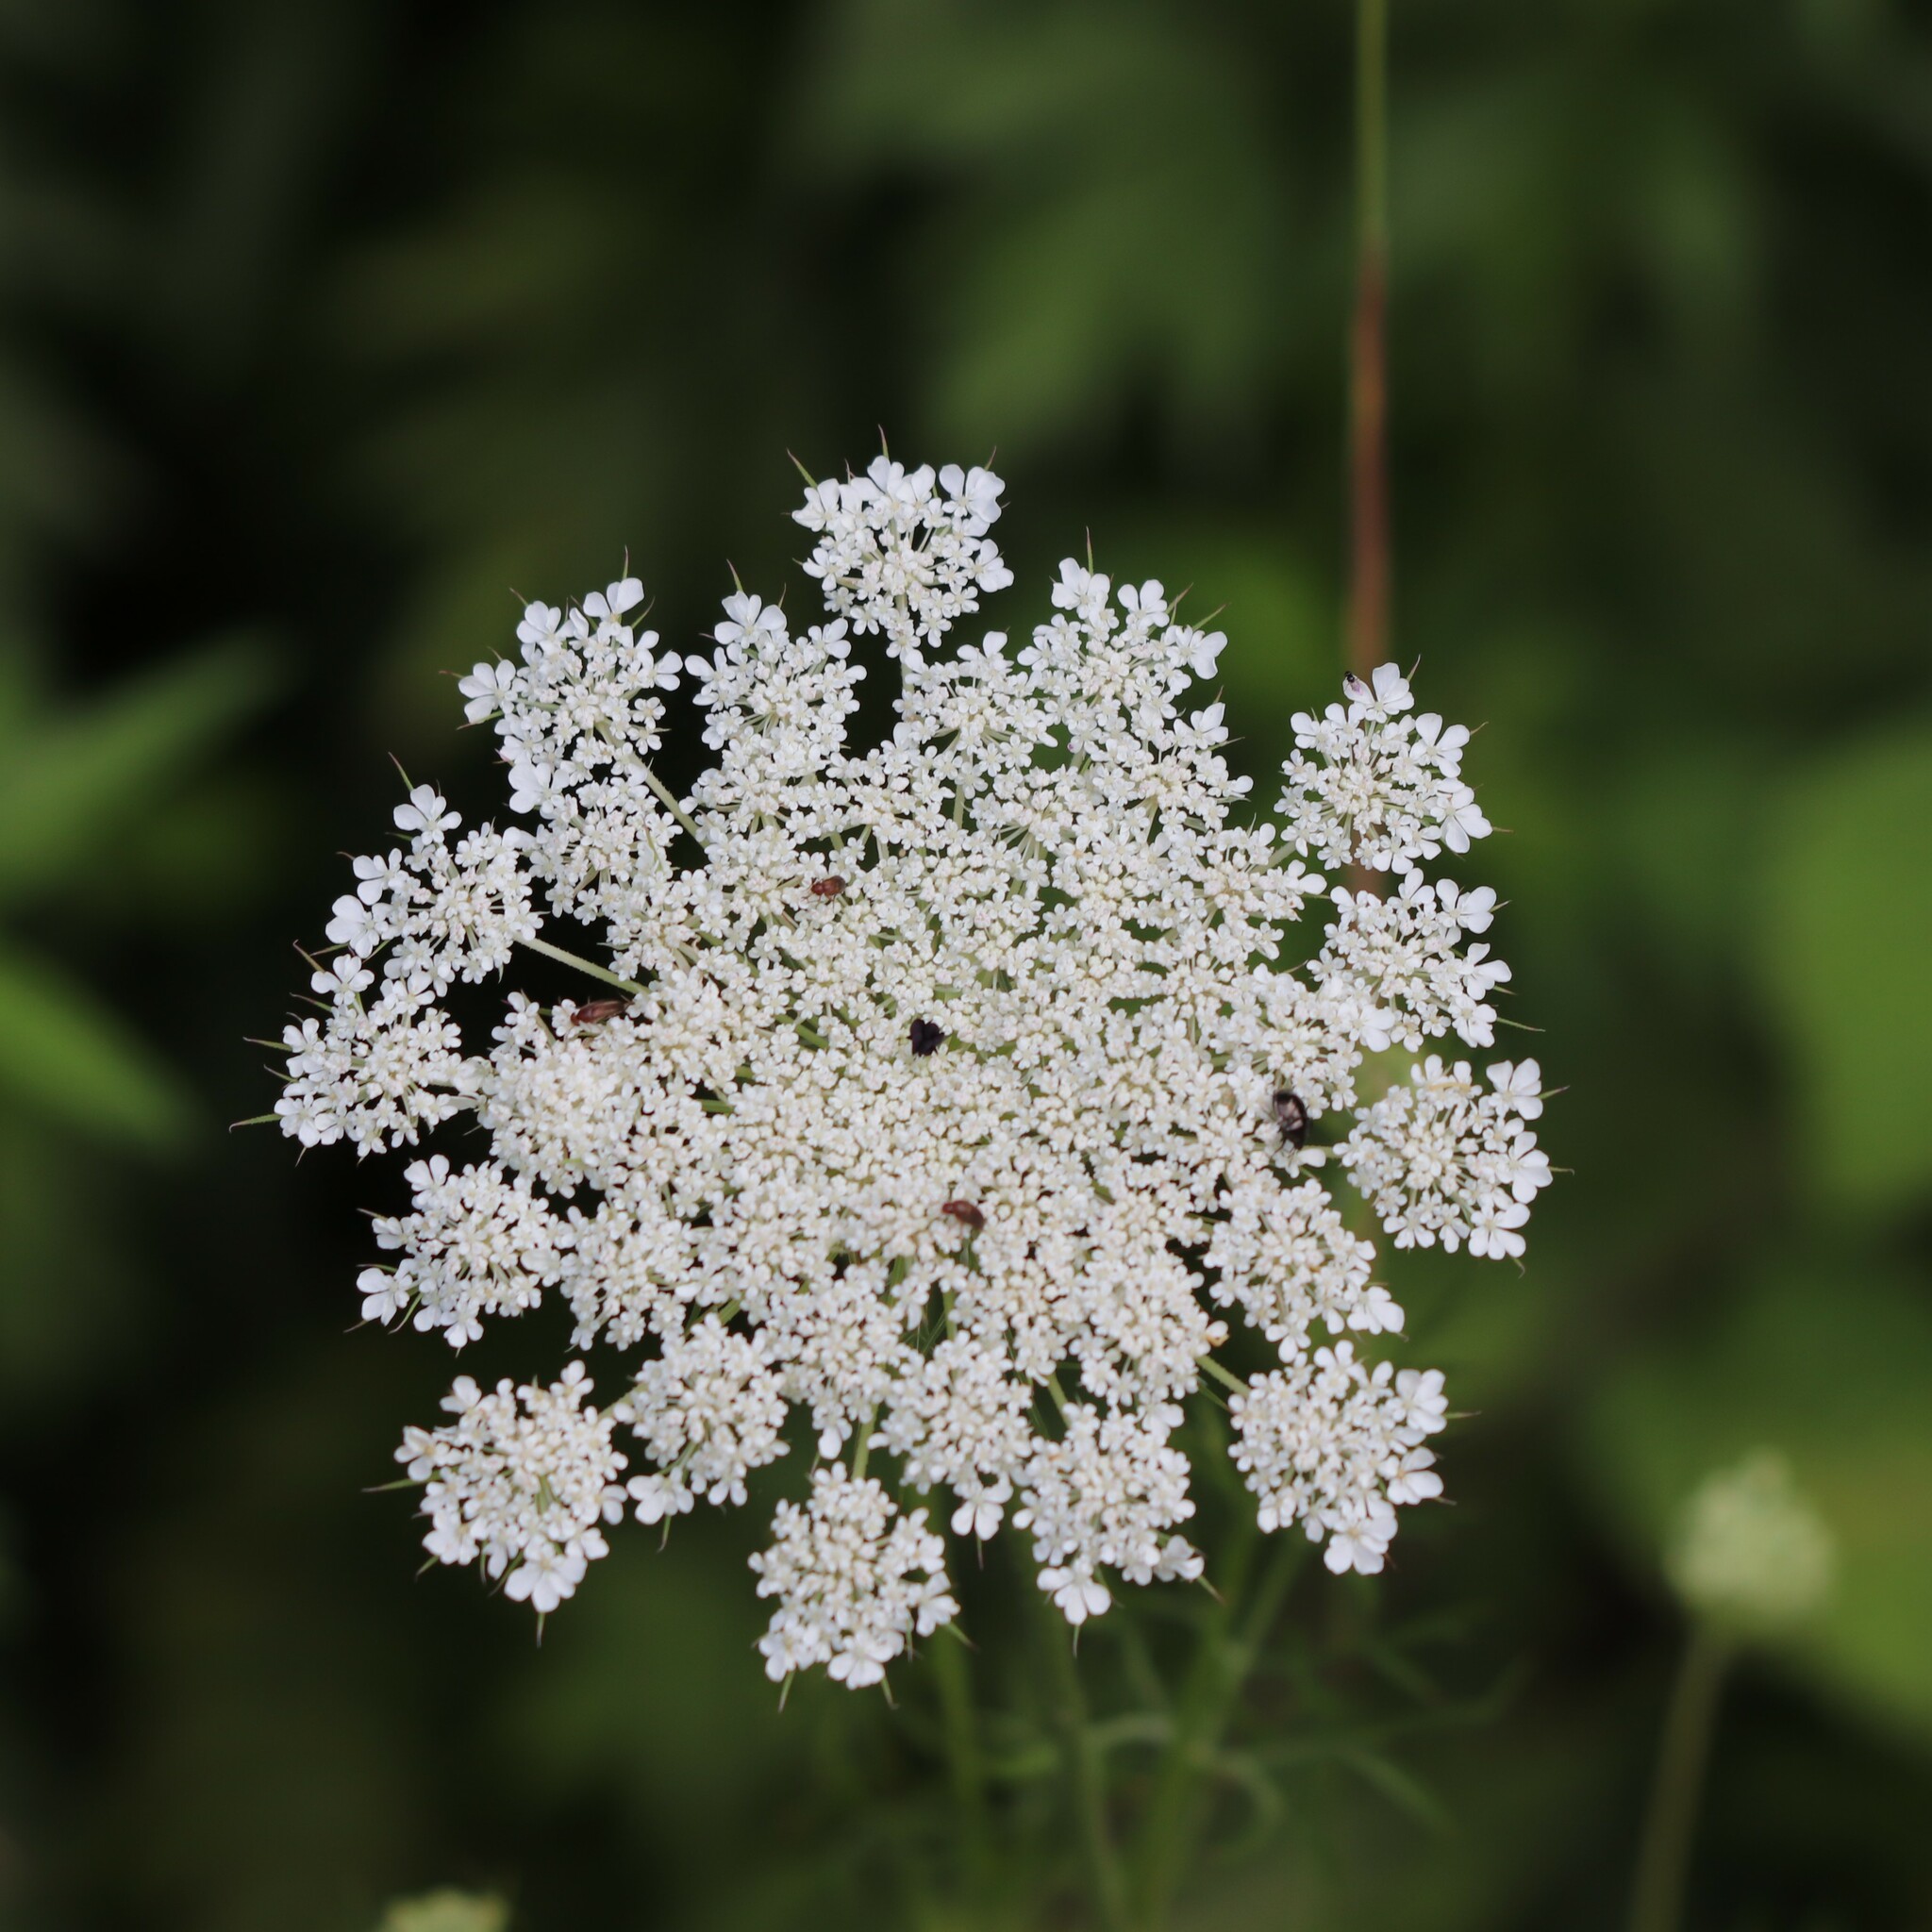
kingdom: Plantae
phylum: Tracheophyta
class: Magnoliopsida
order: Apiales
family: Apiaceae
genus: Daucus
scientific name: Daucus carota
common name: Wild carrot
